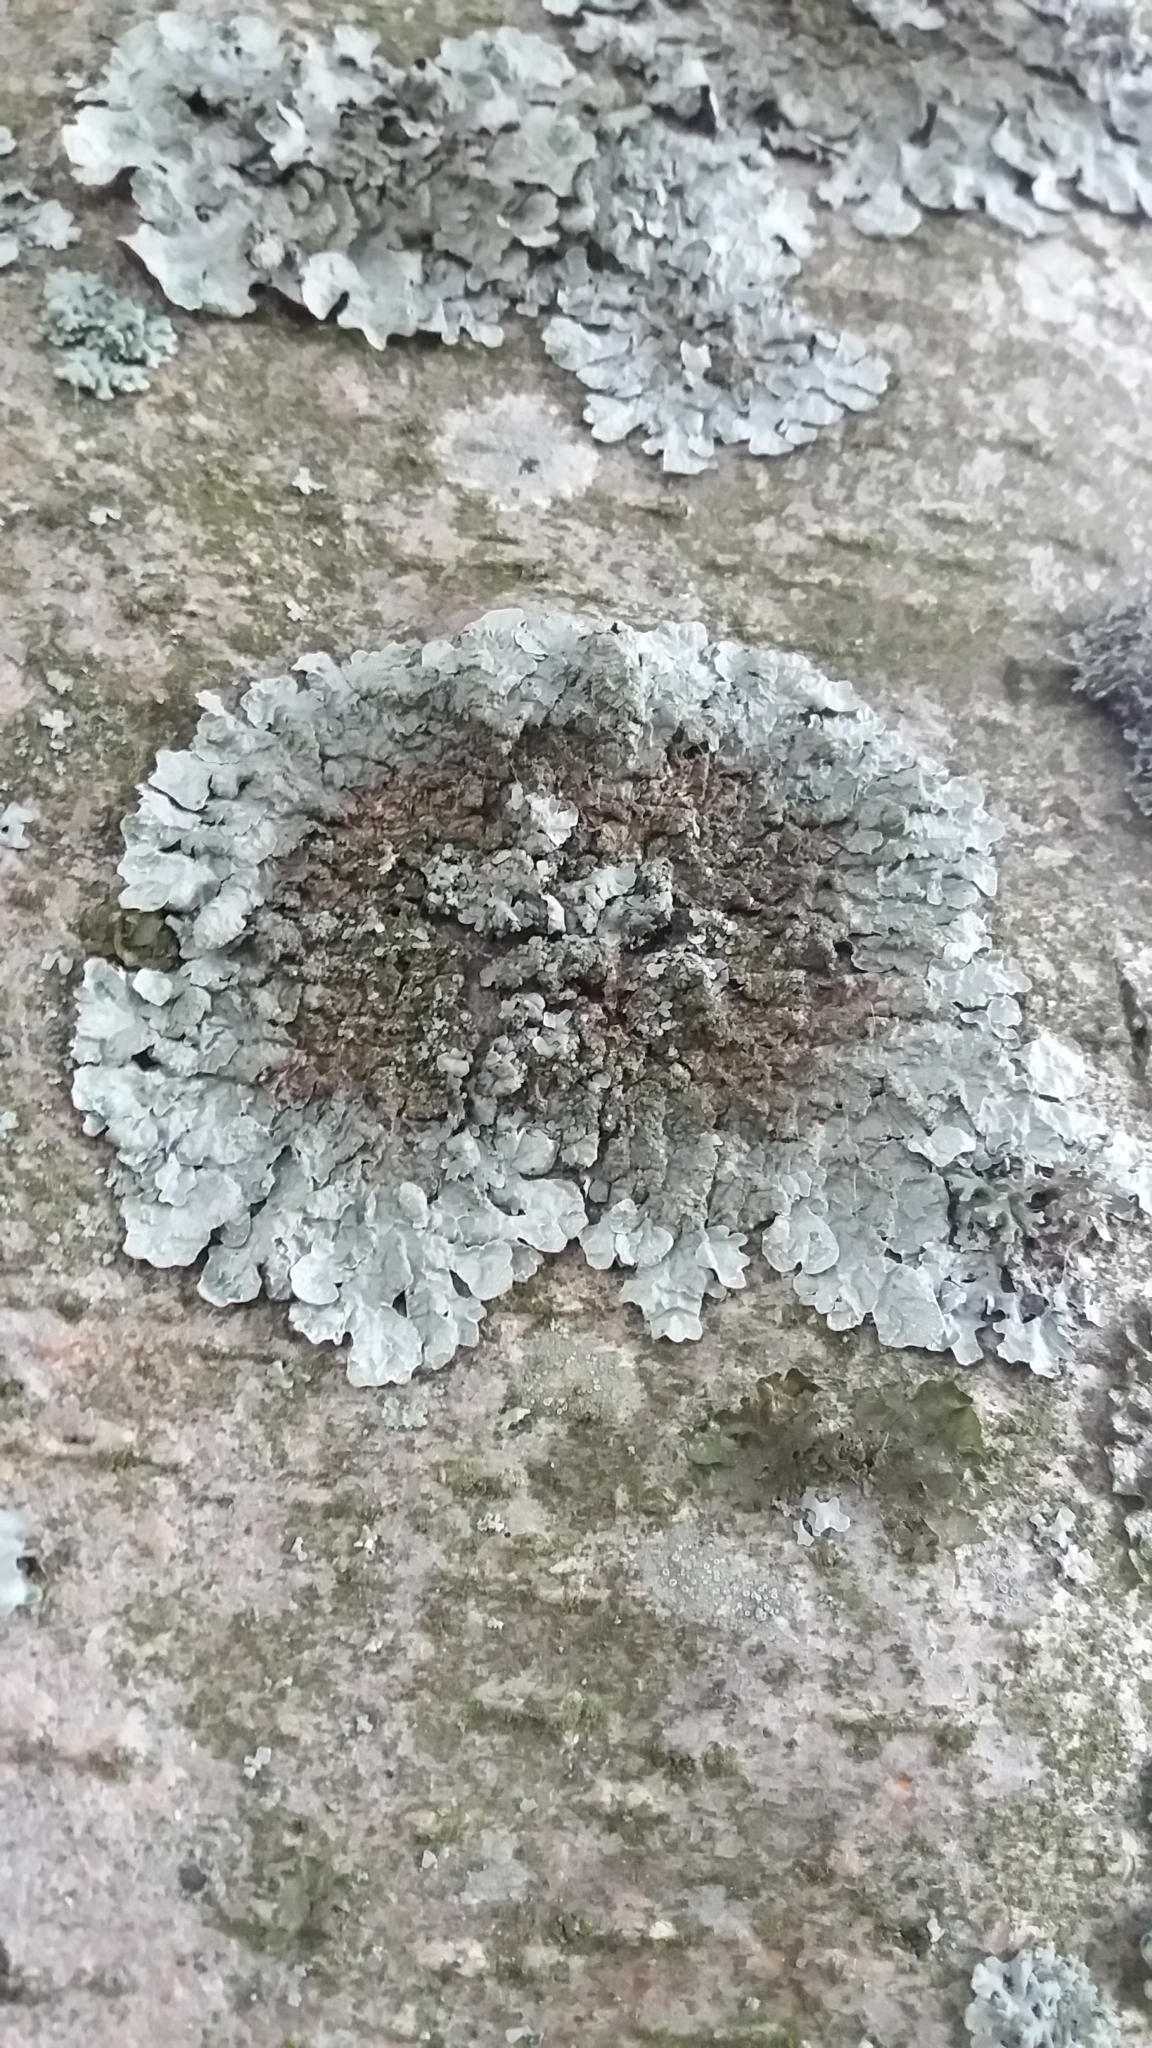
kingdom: Fungi
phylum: Ascomycota
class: Lecanoromycetes
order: Lecanorales
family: Parmeliaceae
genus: Parmelia
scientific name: Parmelia sulcata
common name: Netted shield lichen
